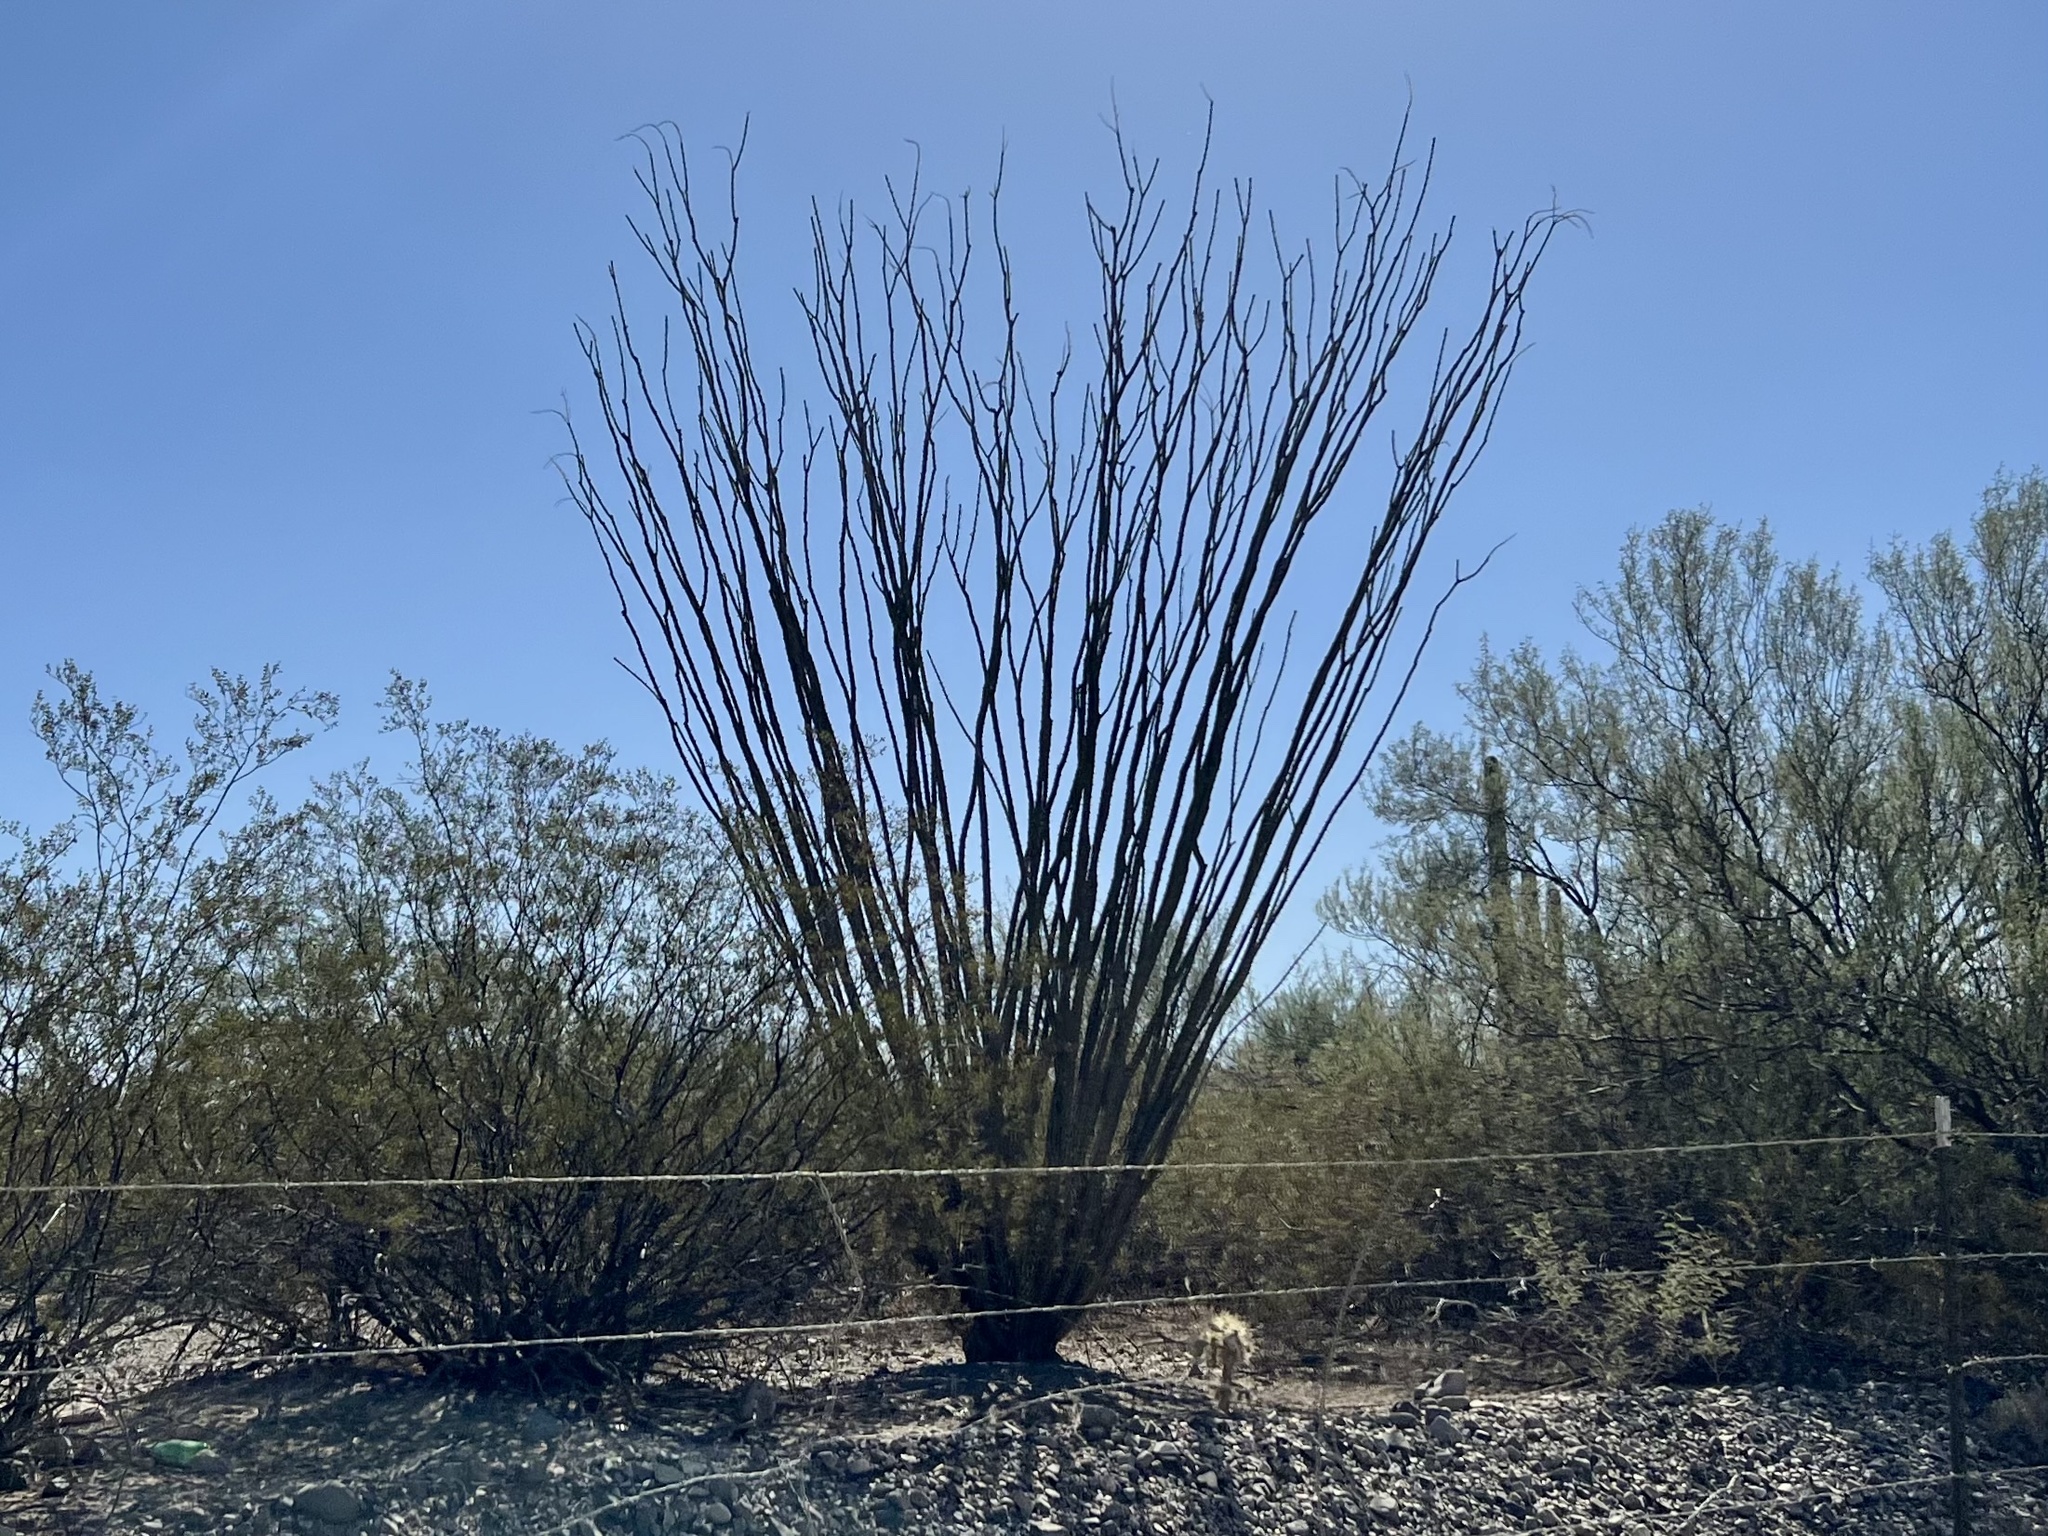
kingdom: Plantae
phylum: Tracheophyta
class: Magnoliopsida
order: Ericales
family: Fouquieriaceae
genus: Fouquieria
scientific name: Fouquieria splendens
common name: Vine-cactus
